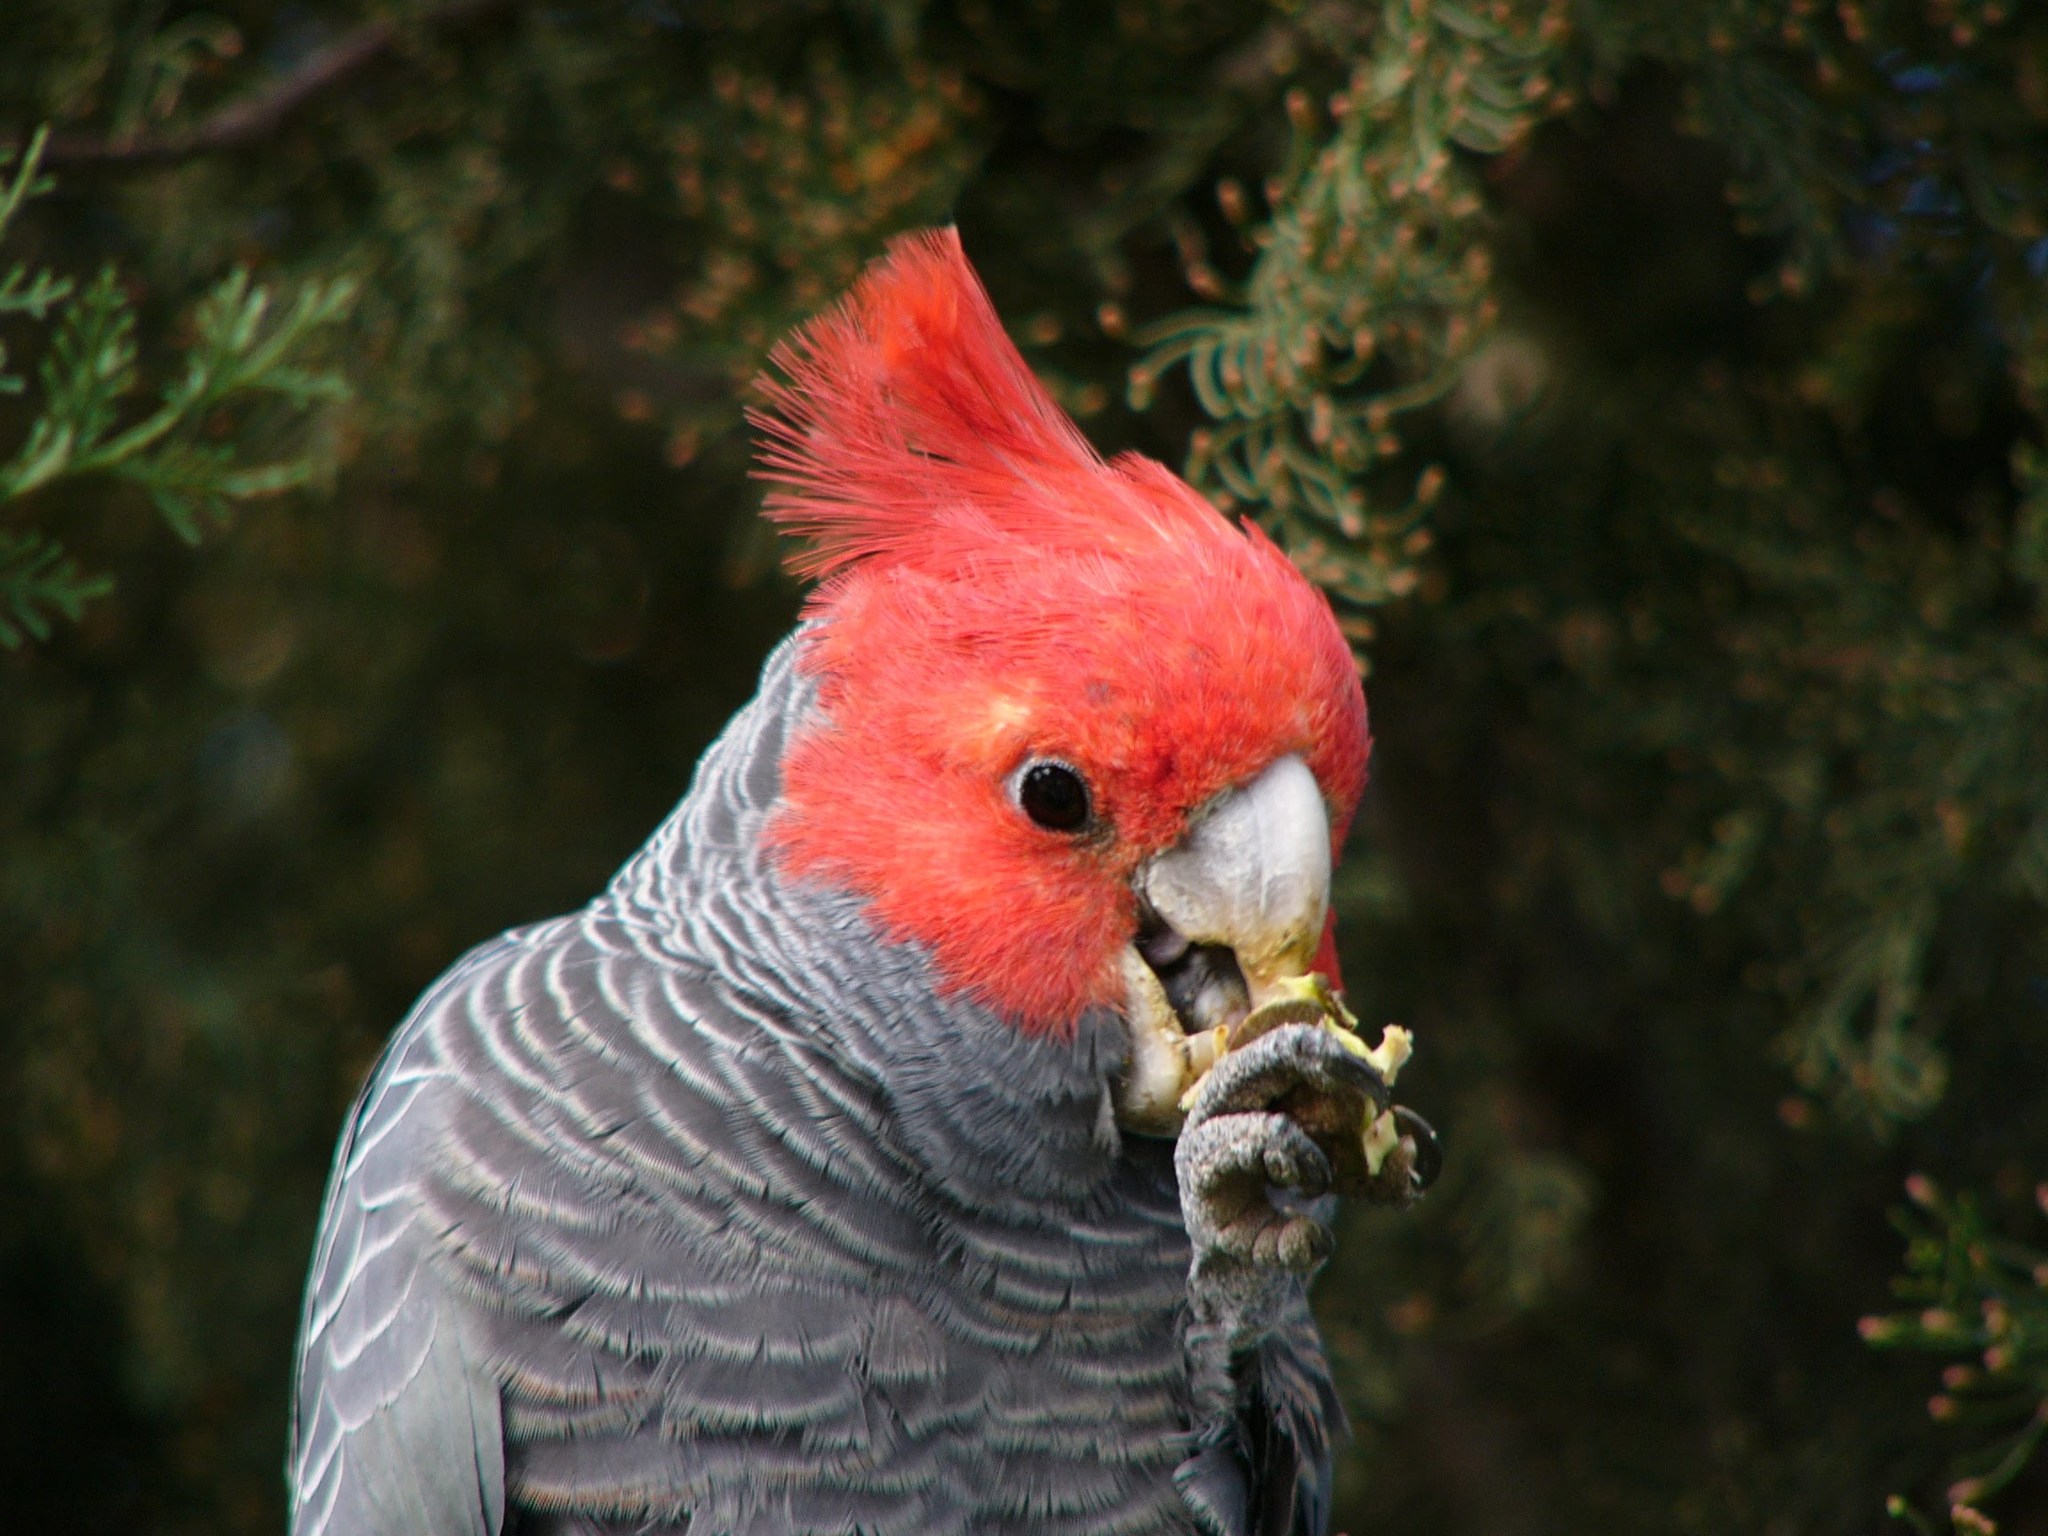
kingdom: Animalia
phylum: Chordata
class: Aves
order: Psittaciformes
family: Psittacidae
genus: Callocephalon
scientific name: Callocephalon fimbriatum
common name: Gang-gang cockatoo
